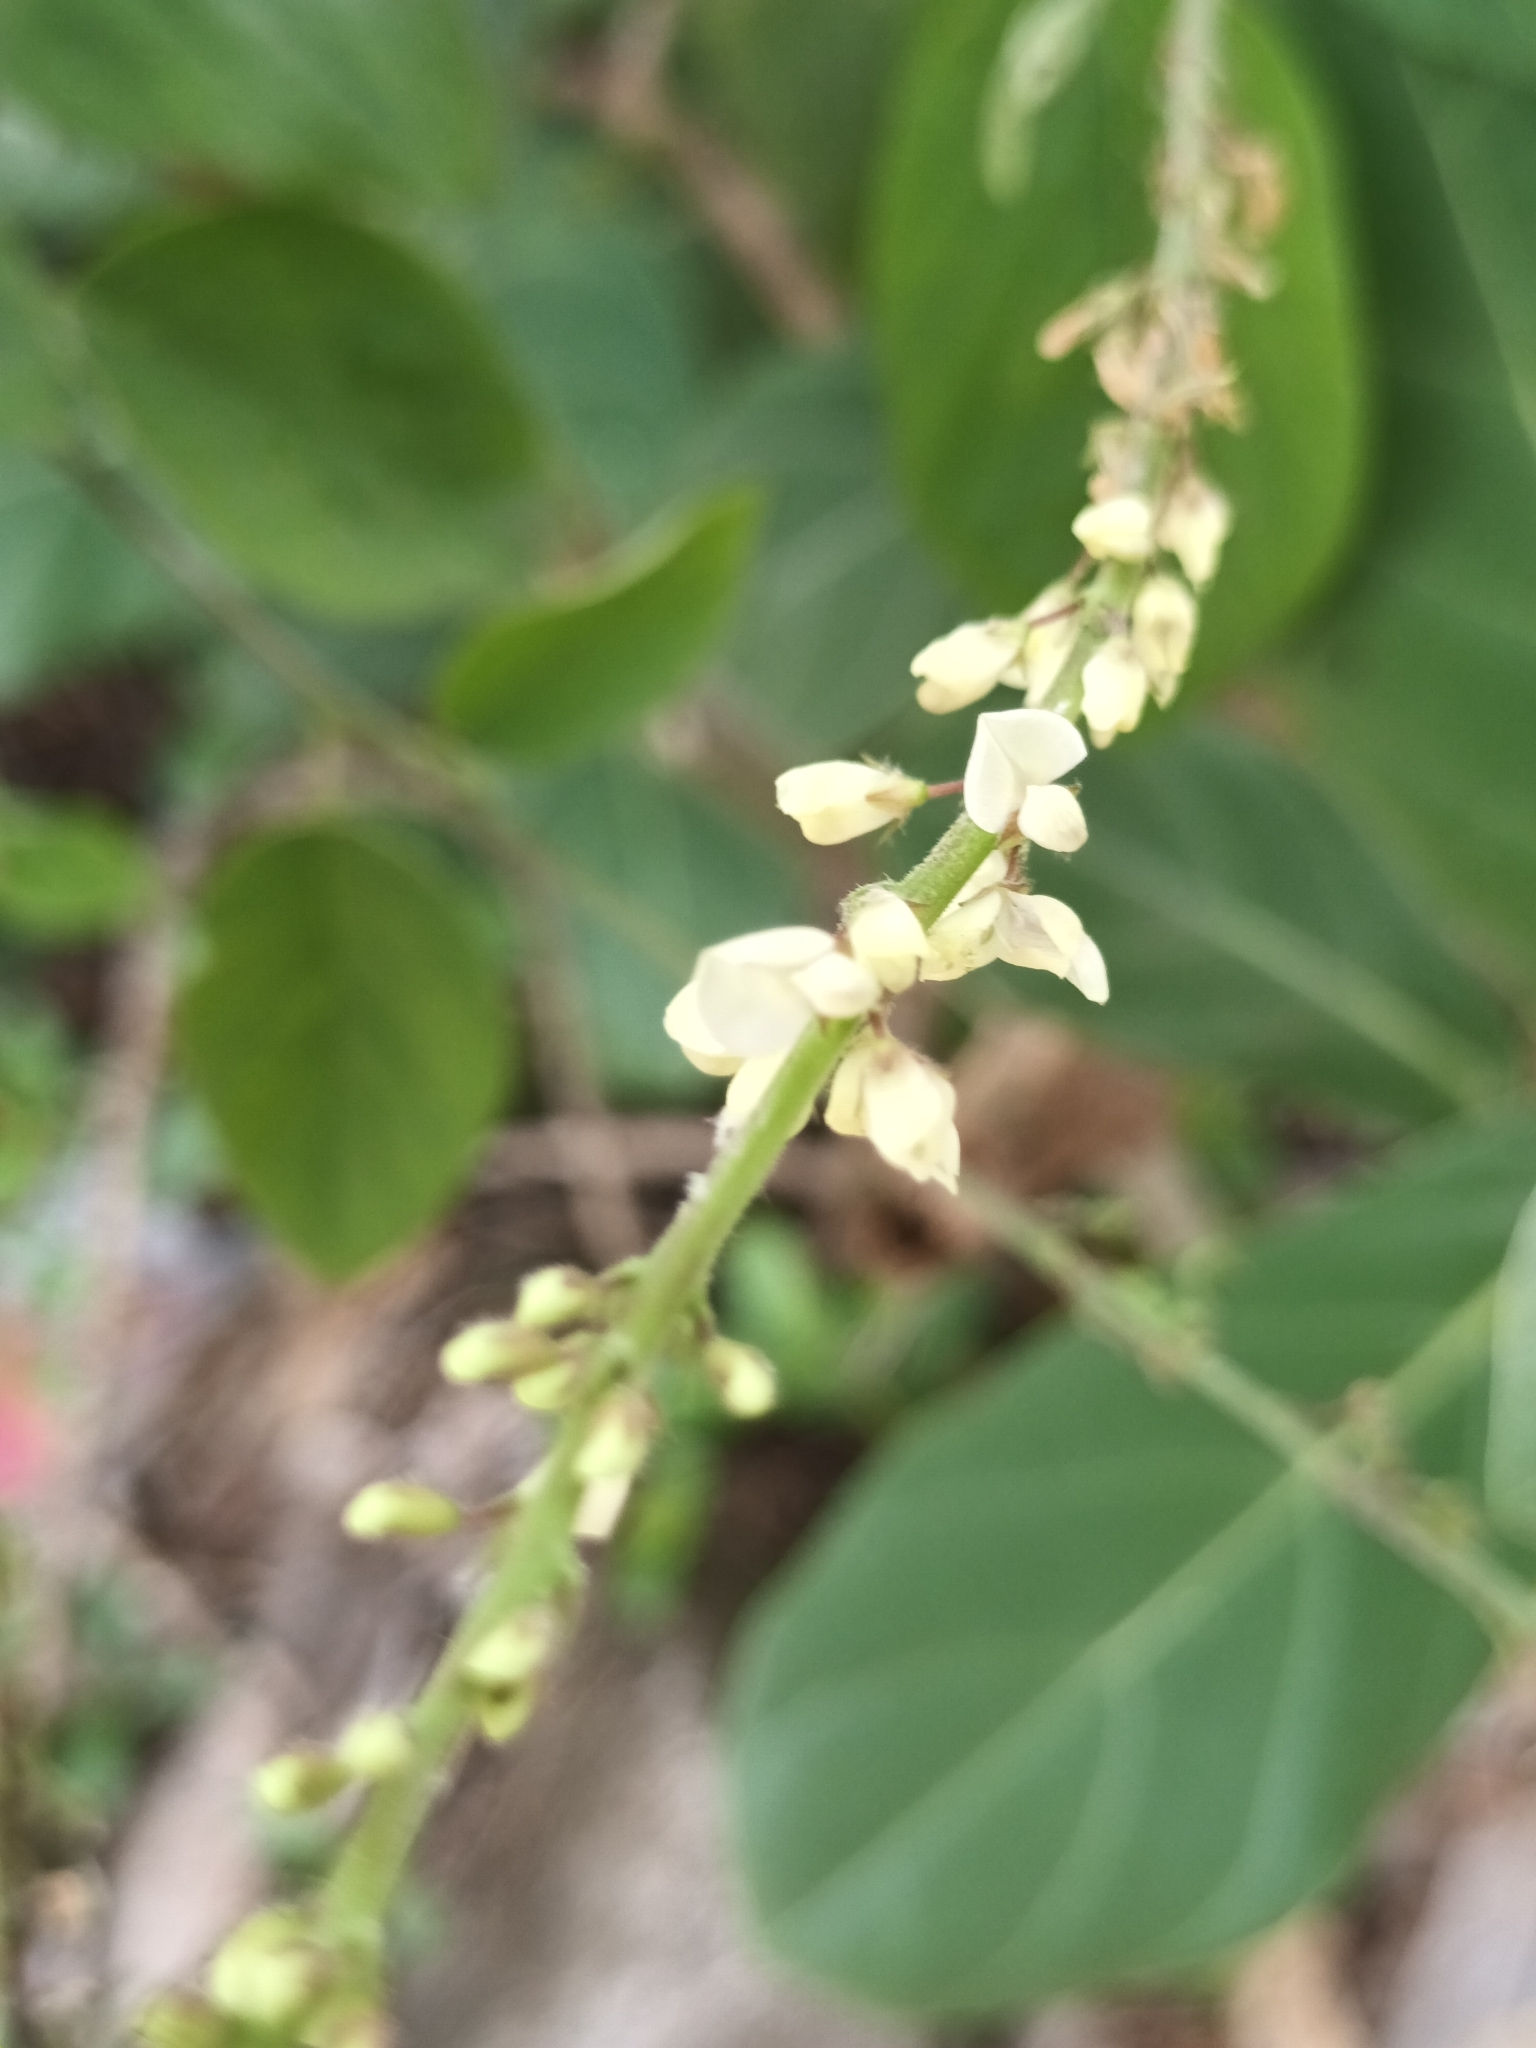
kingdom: Plantae
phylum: Tracheophyta
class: Magnoliopsida
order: Fabales
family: Fabaceae
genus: Pleurolobus
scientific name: Pleurolobus gangeticus
